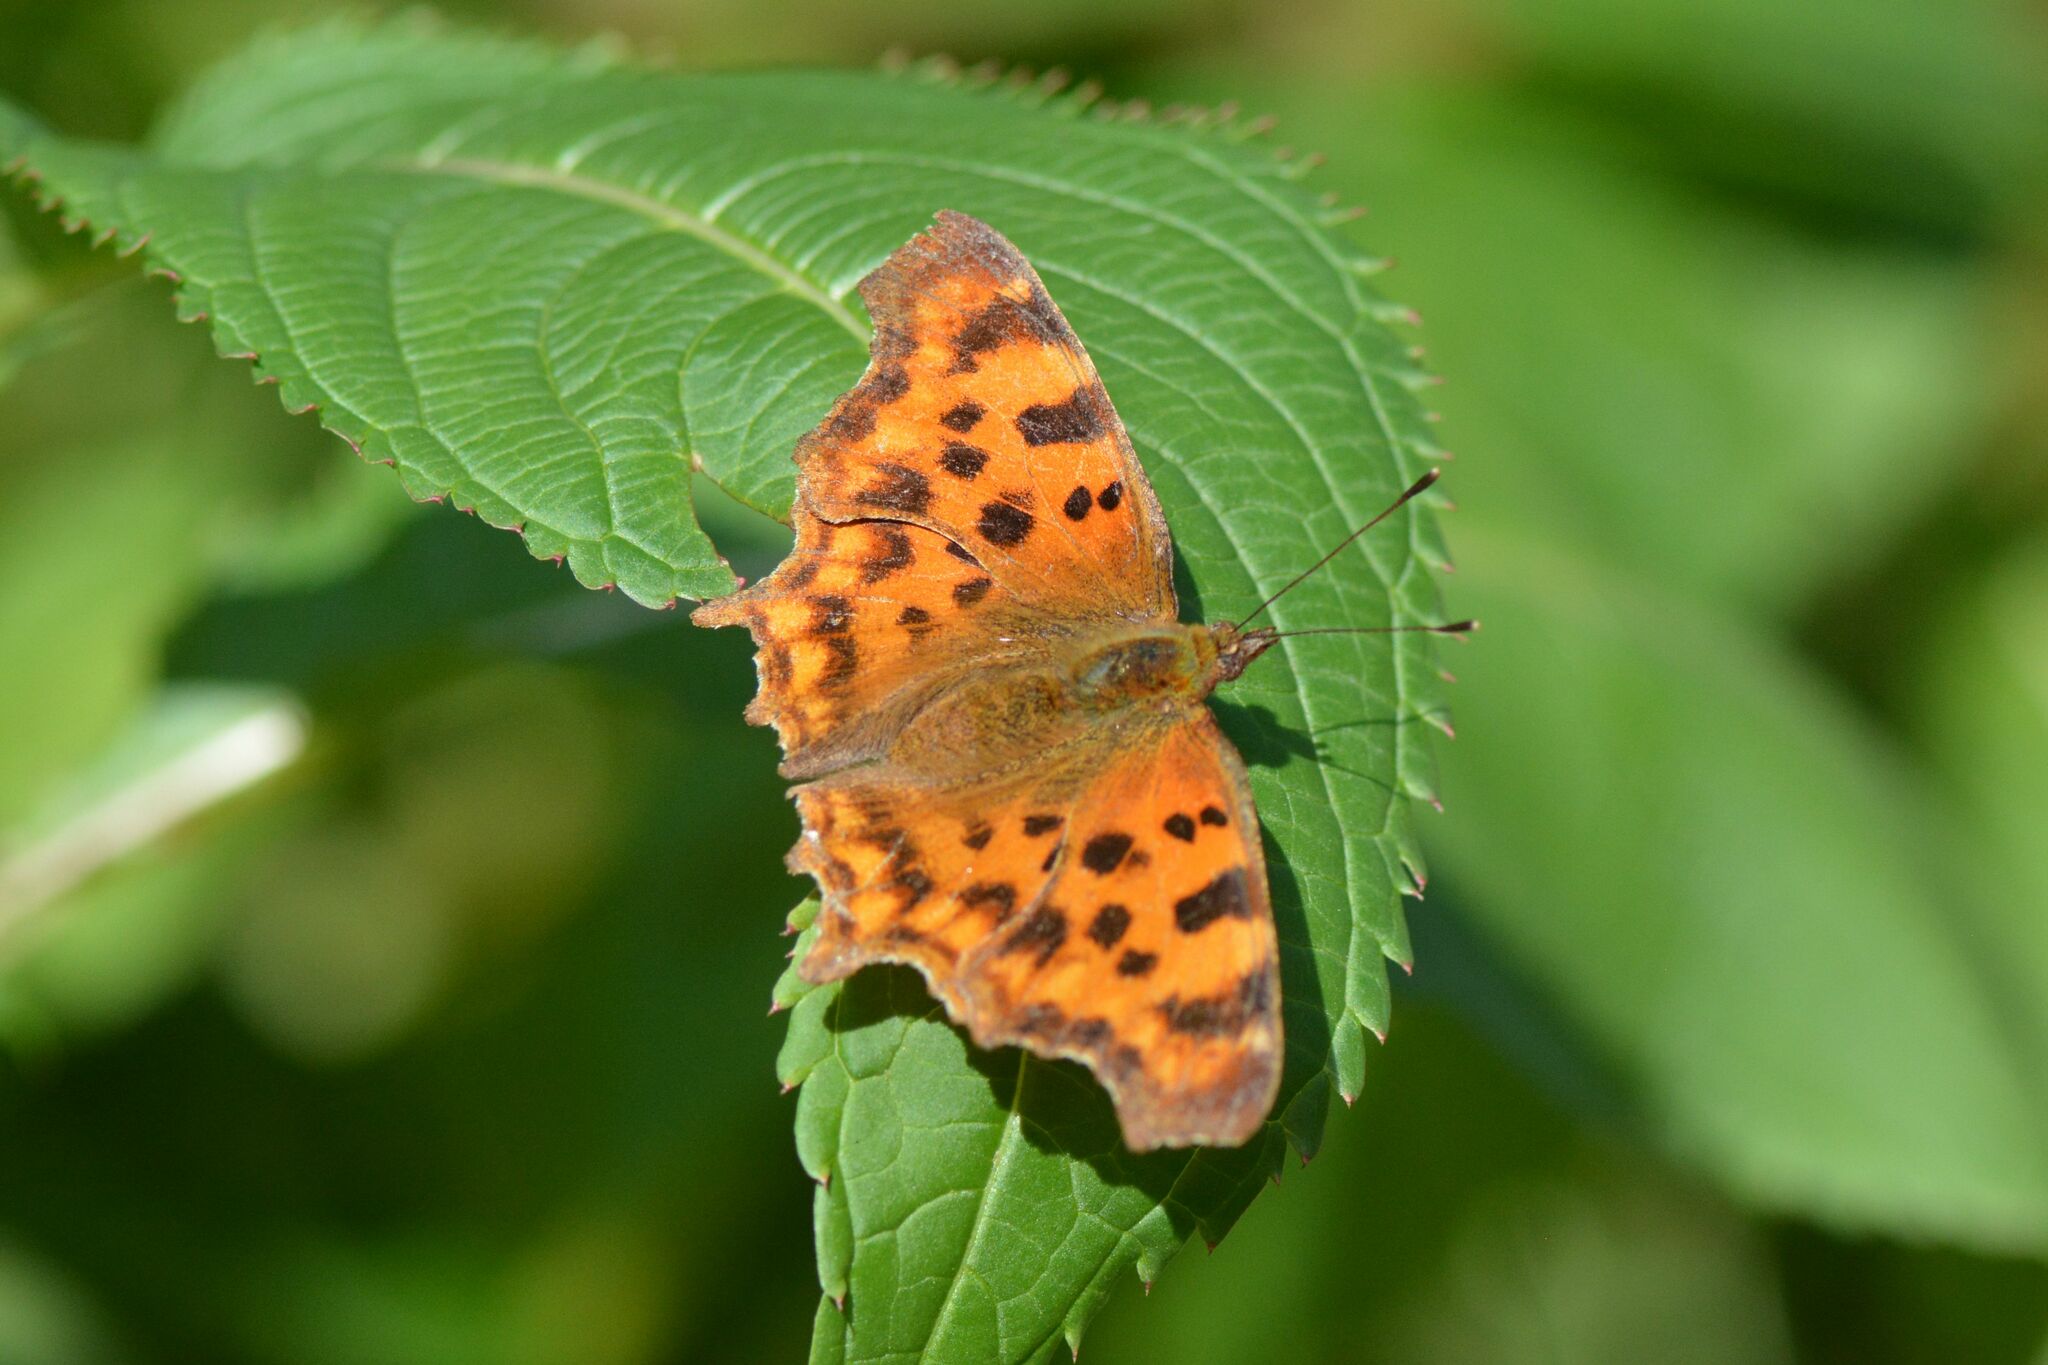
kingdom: Animalia
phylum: Arthropoda
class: Insecta
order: Lepidoptera
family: Nymphalidae
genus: Polygonia
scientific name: Polygonia c-album
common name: Comma
